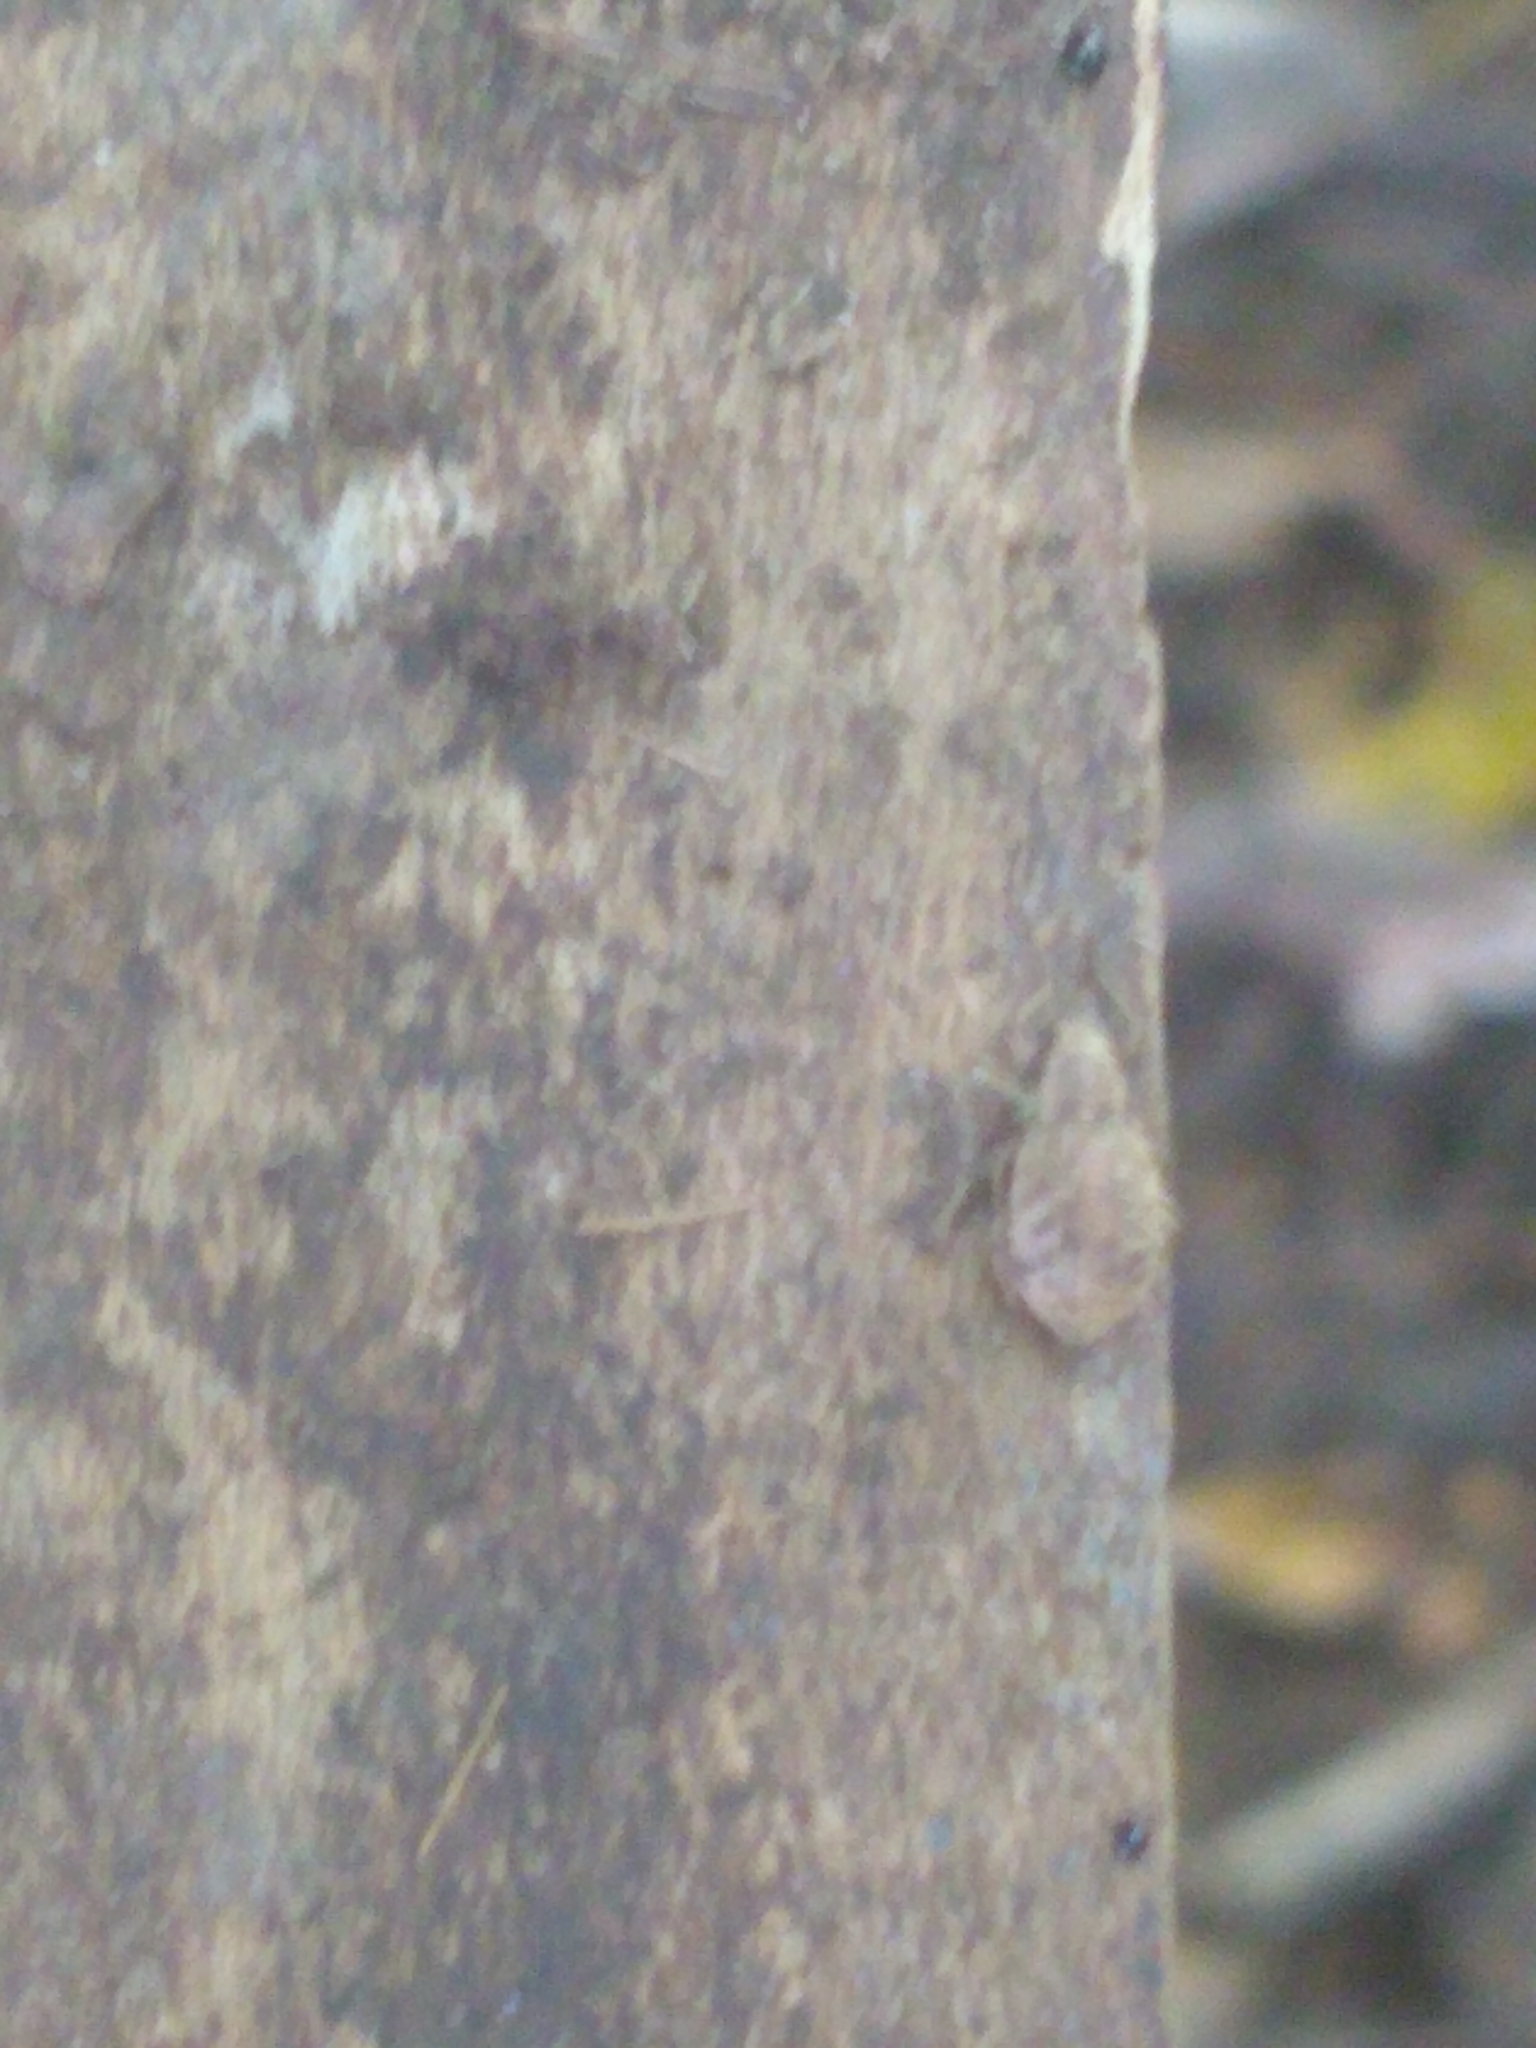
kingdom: Animalia
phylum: Arthropoda
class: Insecta
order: Coleoptera
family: Curculionidae
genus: Sciaphilus
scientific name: Sciaphilus asperatus
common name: Weevil
